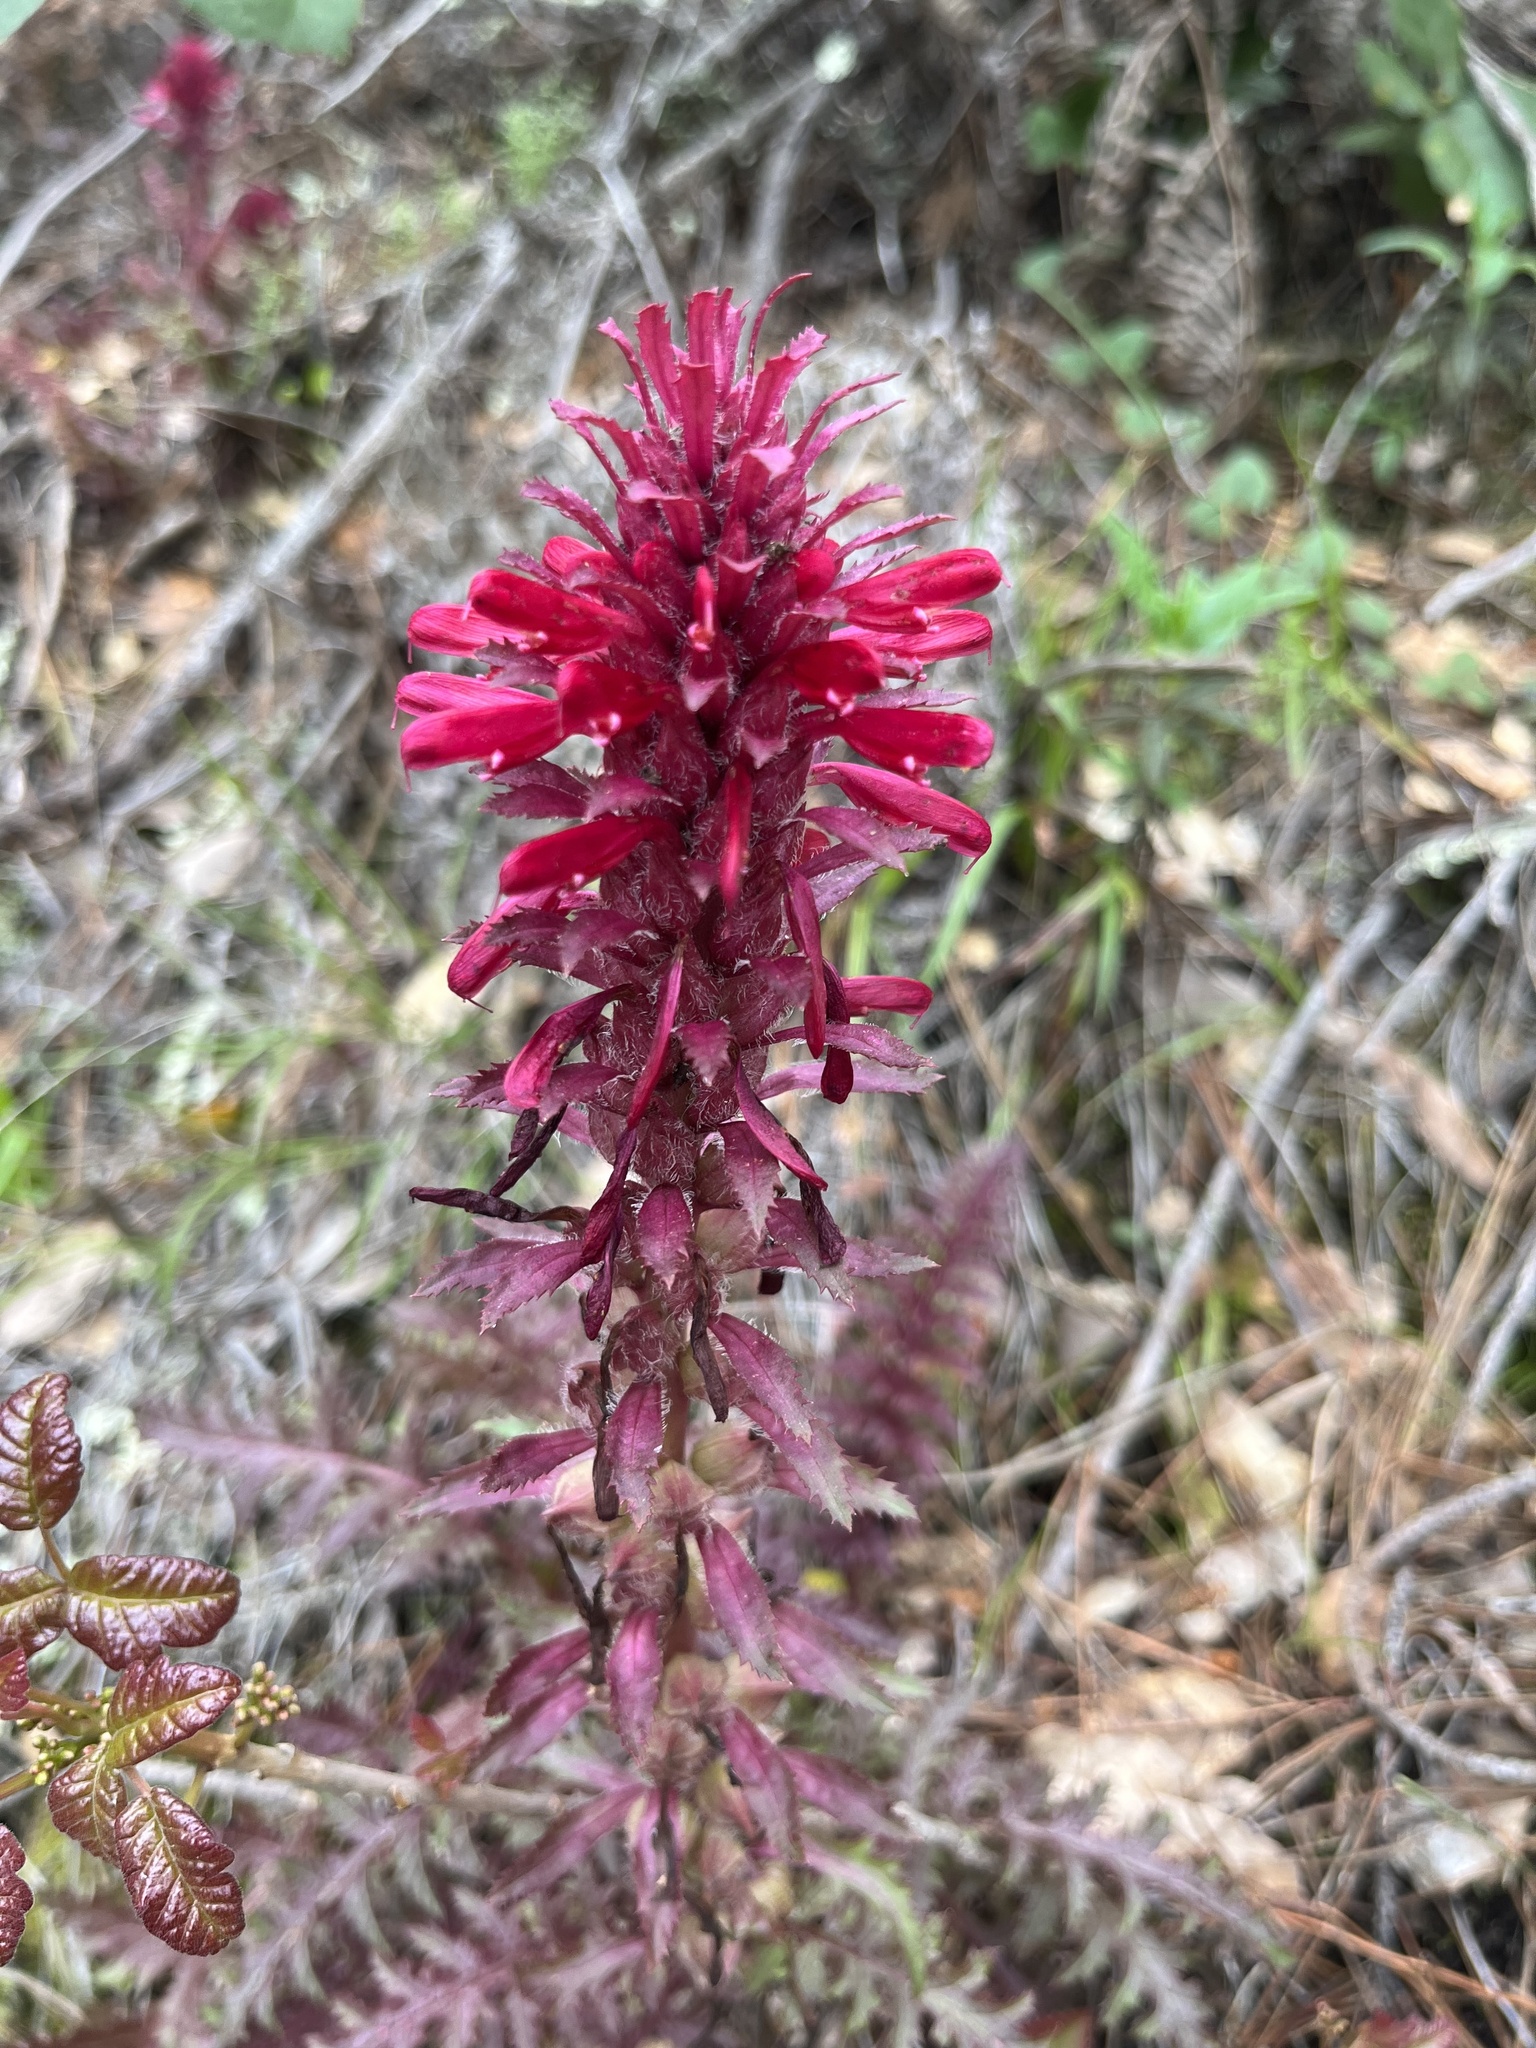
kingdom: Plantae
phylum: Tracheophyta
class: Magnoliopsida
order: Lamiales
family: Orobanchaceae
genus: Pedicularis
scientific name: Pedicularis densiflora
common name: Indian warrior
